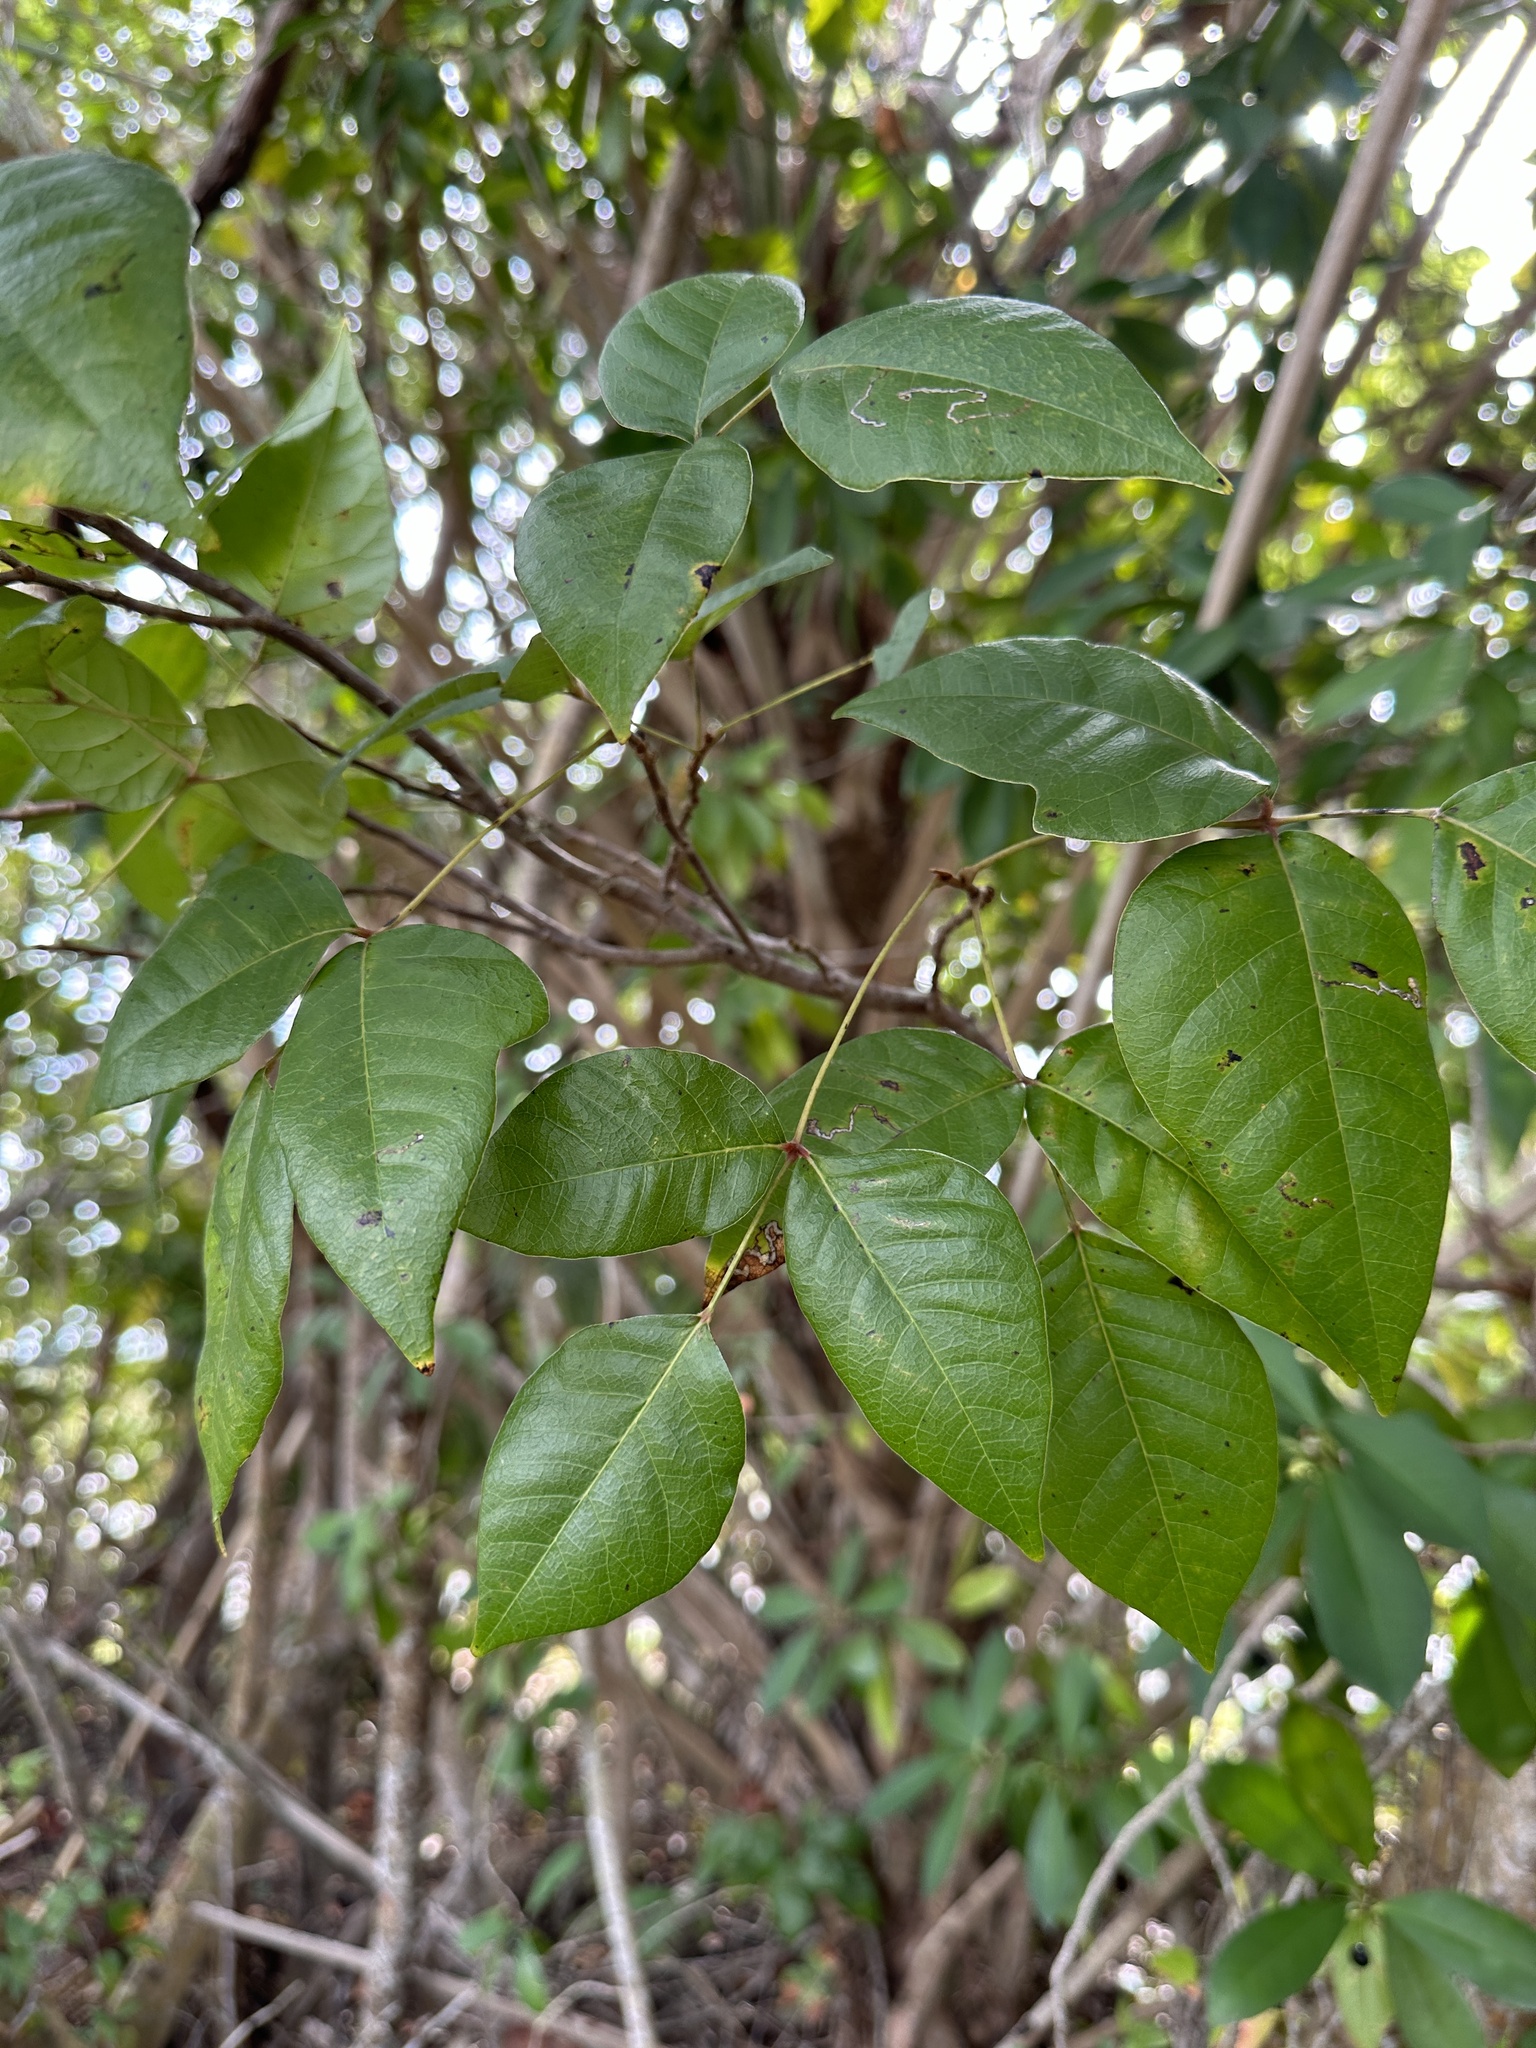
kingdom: Plantae
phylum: Tracheophyta
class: Magnoliopsida
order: Sapindales
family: Anacardiaceae
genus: Toxicodendron
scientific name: Toxicodendron radicans
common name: Poison ivy
